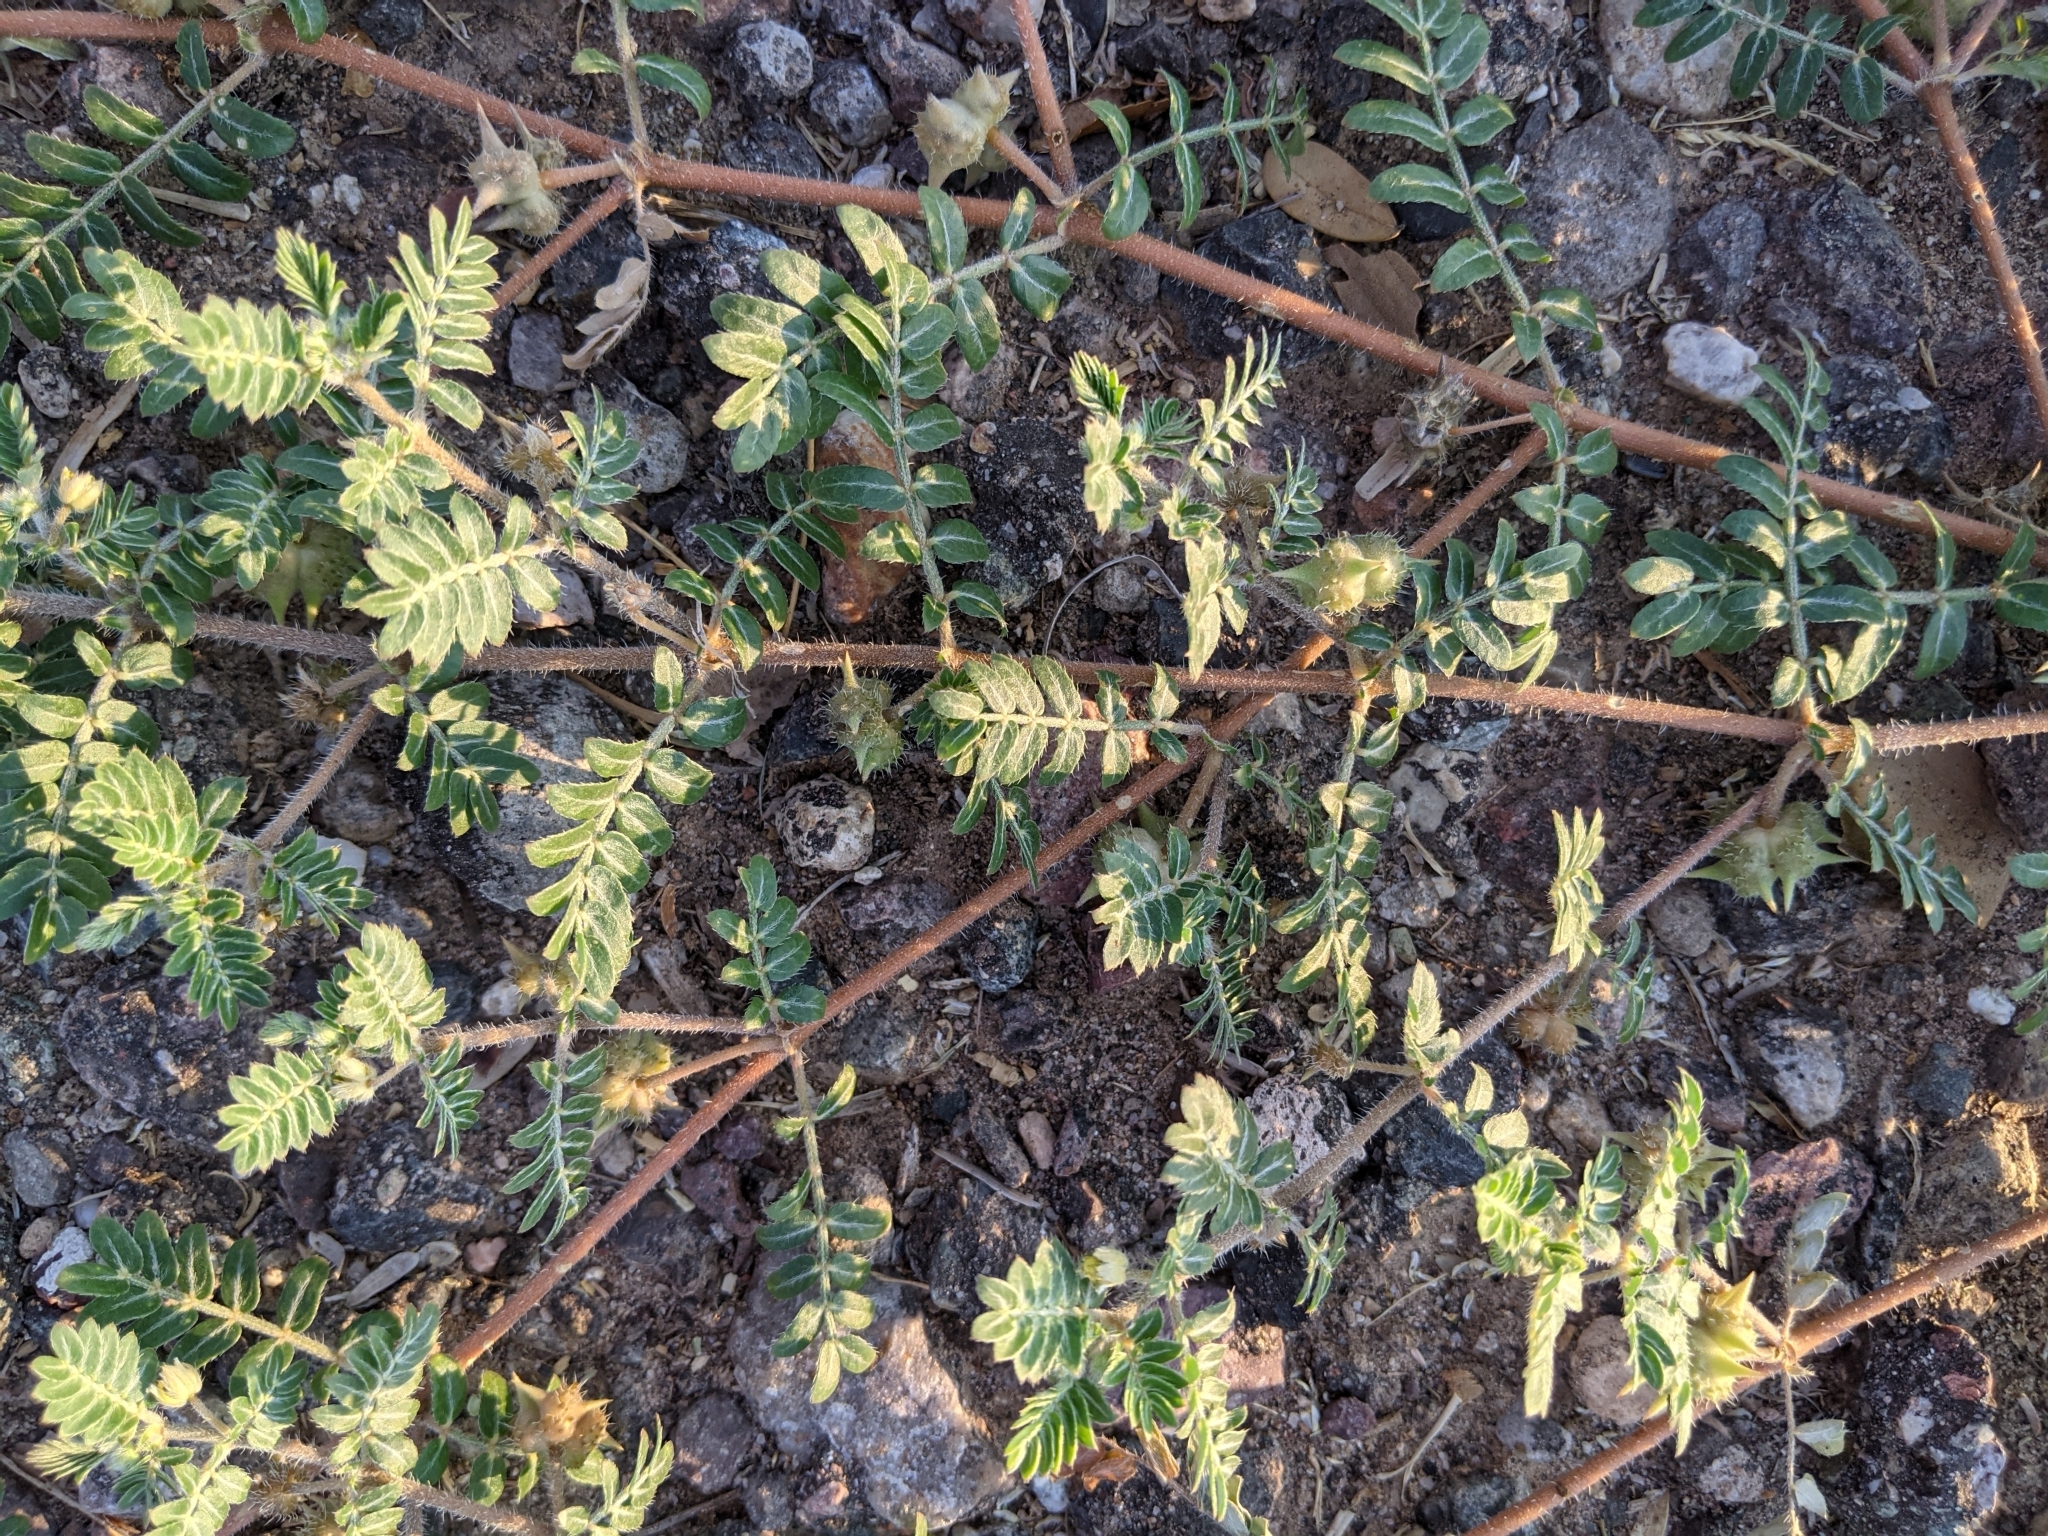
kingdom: Plantae
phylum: Tracheophyta
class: Magnoliopsida
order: Zygophyllales
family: Zygophyllaceae
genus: Tribulus
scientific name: Tribulus terrestris
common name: Puncturevine
